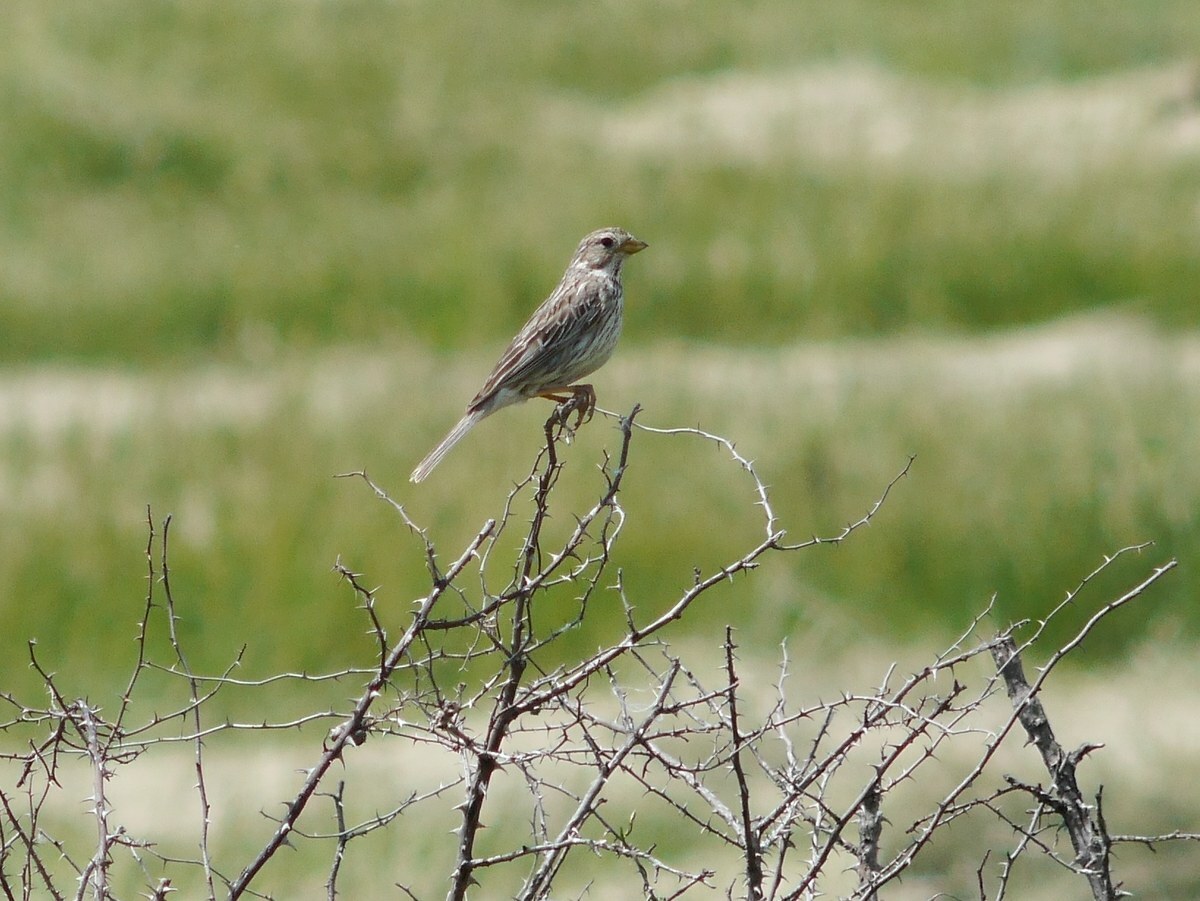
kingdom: Animalia
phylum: Chordata
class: Aves
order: Passeriformes
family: Emberizidae
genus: Emberiza
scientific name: Emberiza calandra
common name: Corn bunting
